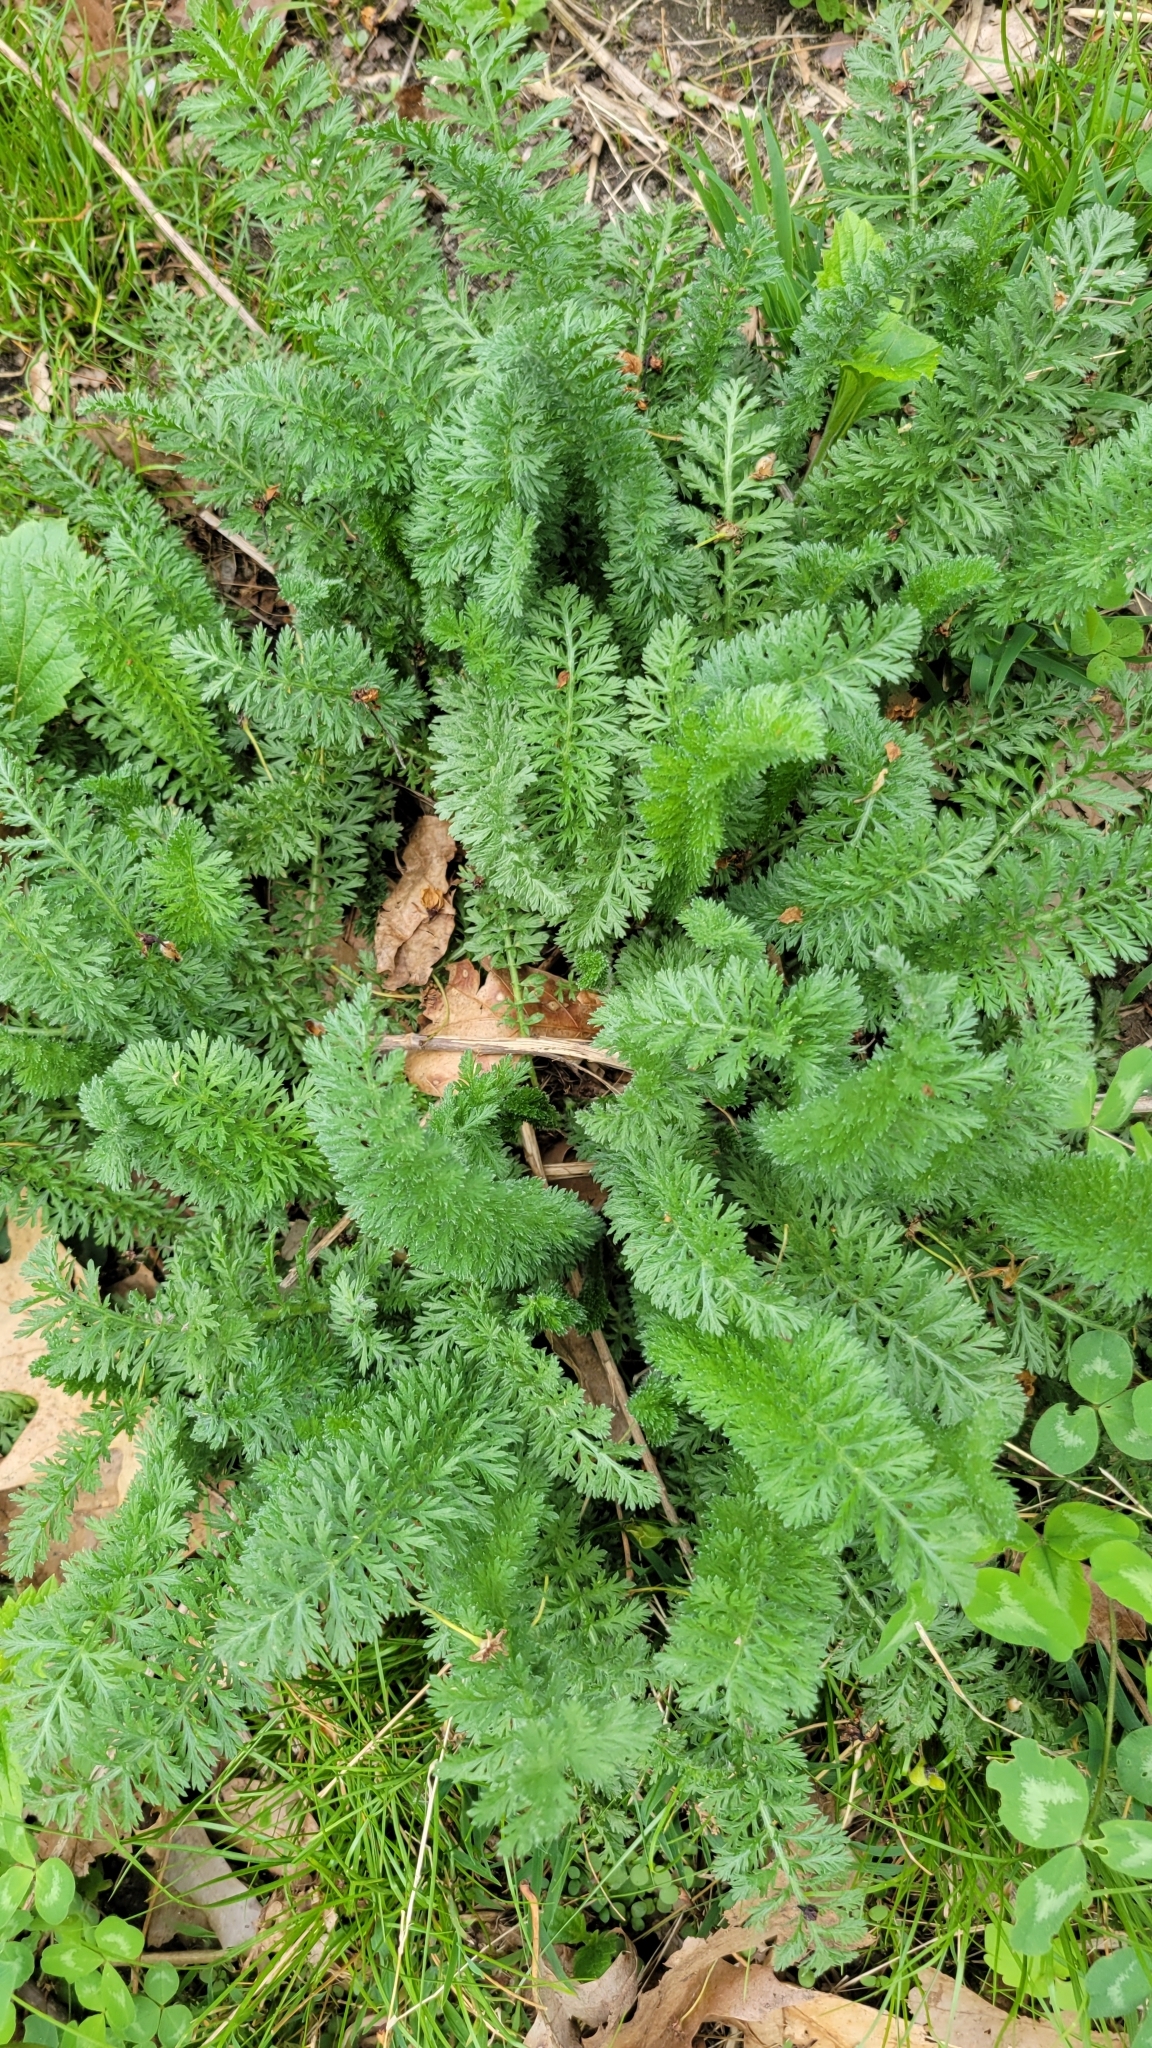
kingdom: Plantae
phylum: Tracheophyta
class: Magnoliopsida
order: Asterales
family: Asteraceae
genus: Achillea
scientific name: Achillea millefolium
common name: Yarrow
